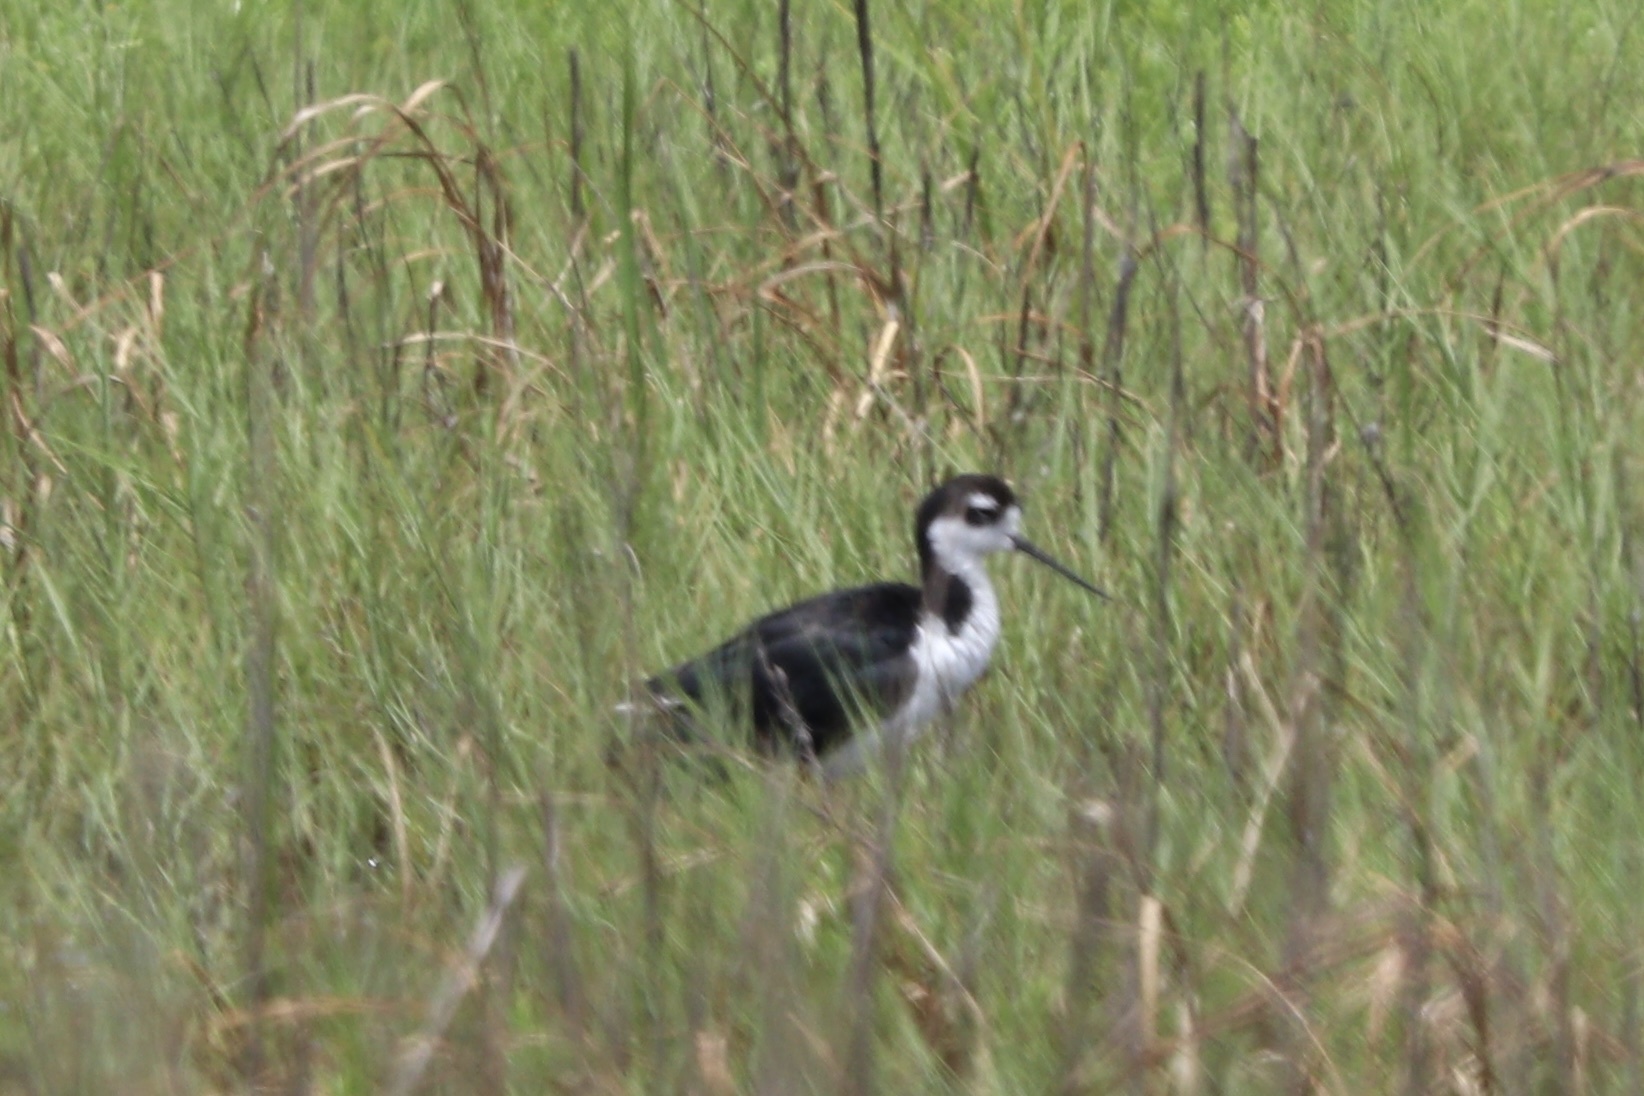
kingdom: Animalia
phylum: Chordata
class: Aves
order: Charadriiformes
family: Recurvirostridae
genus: Himantopus
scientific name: Himantopus mexicanus
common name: Black-necked stilt
